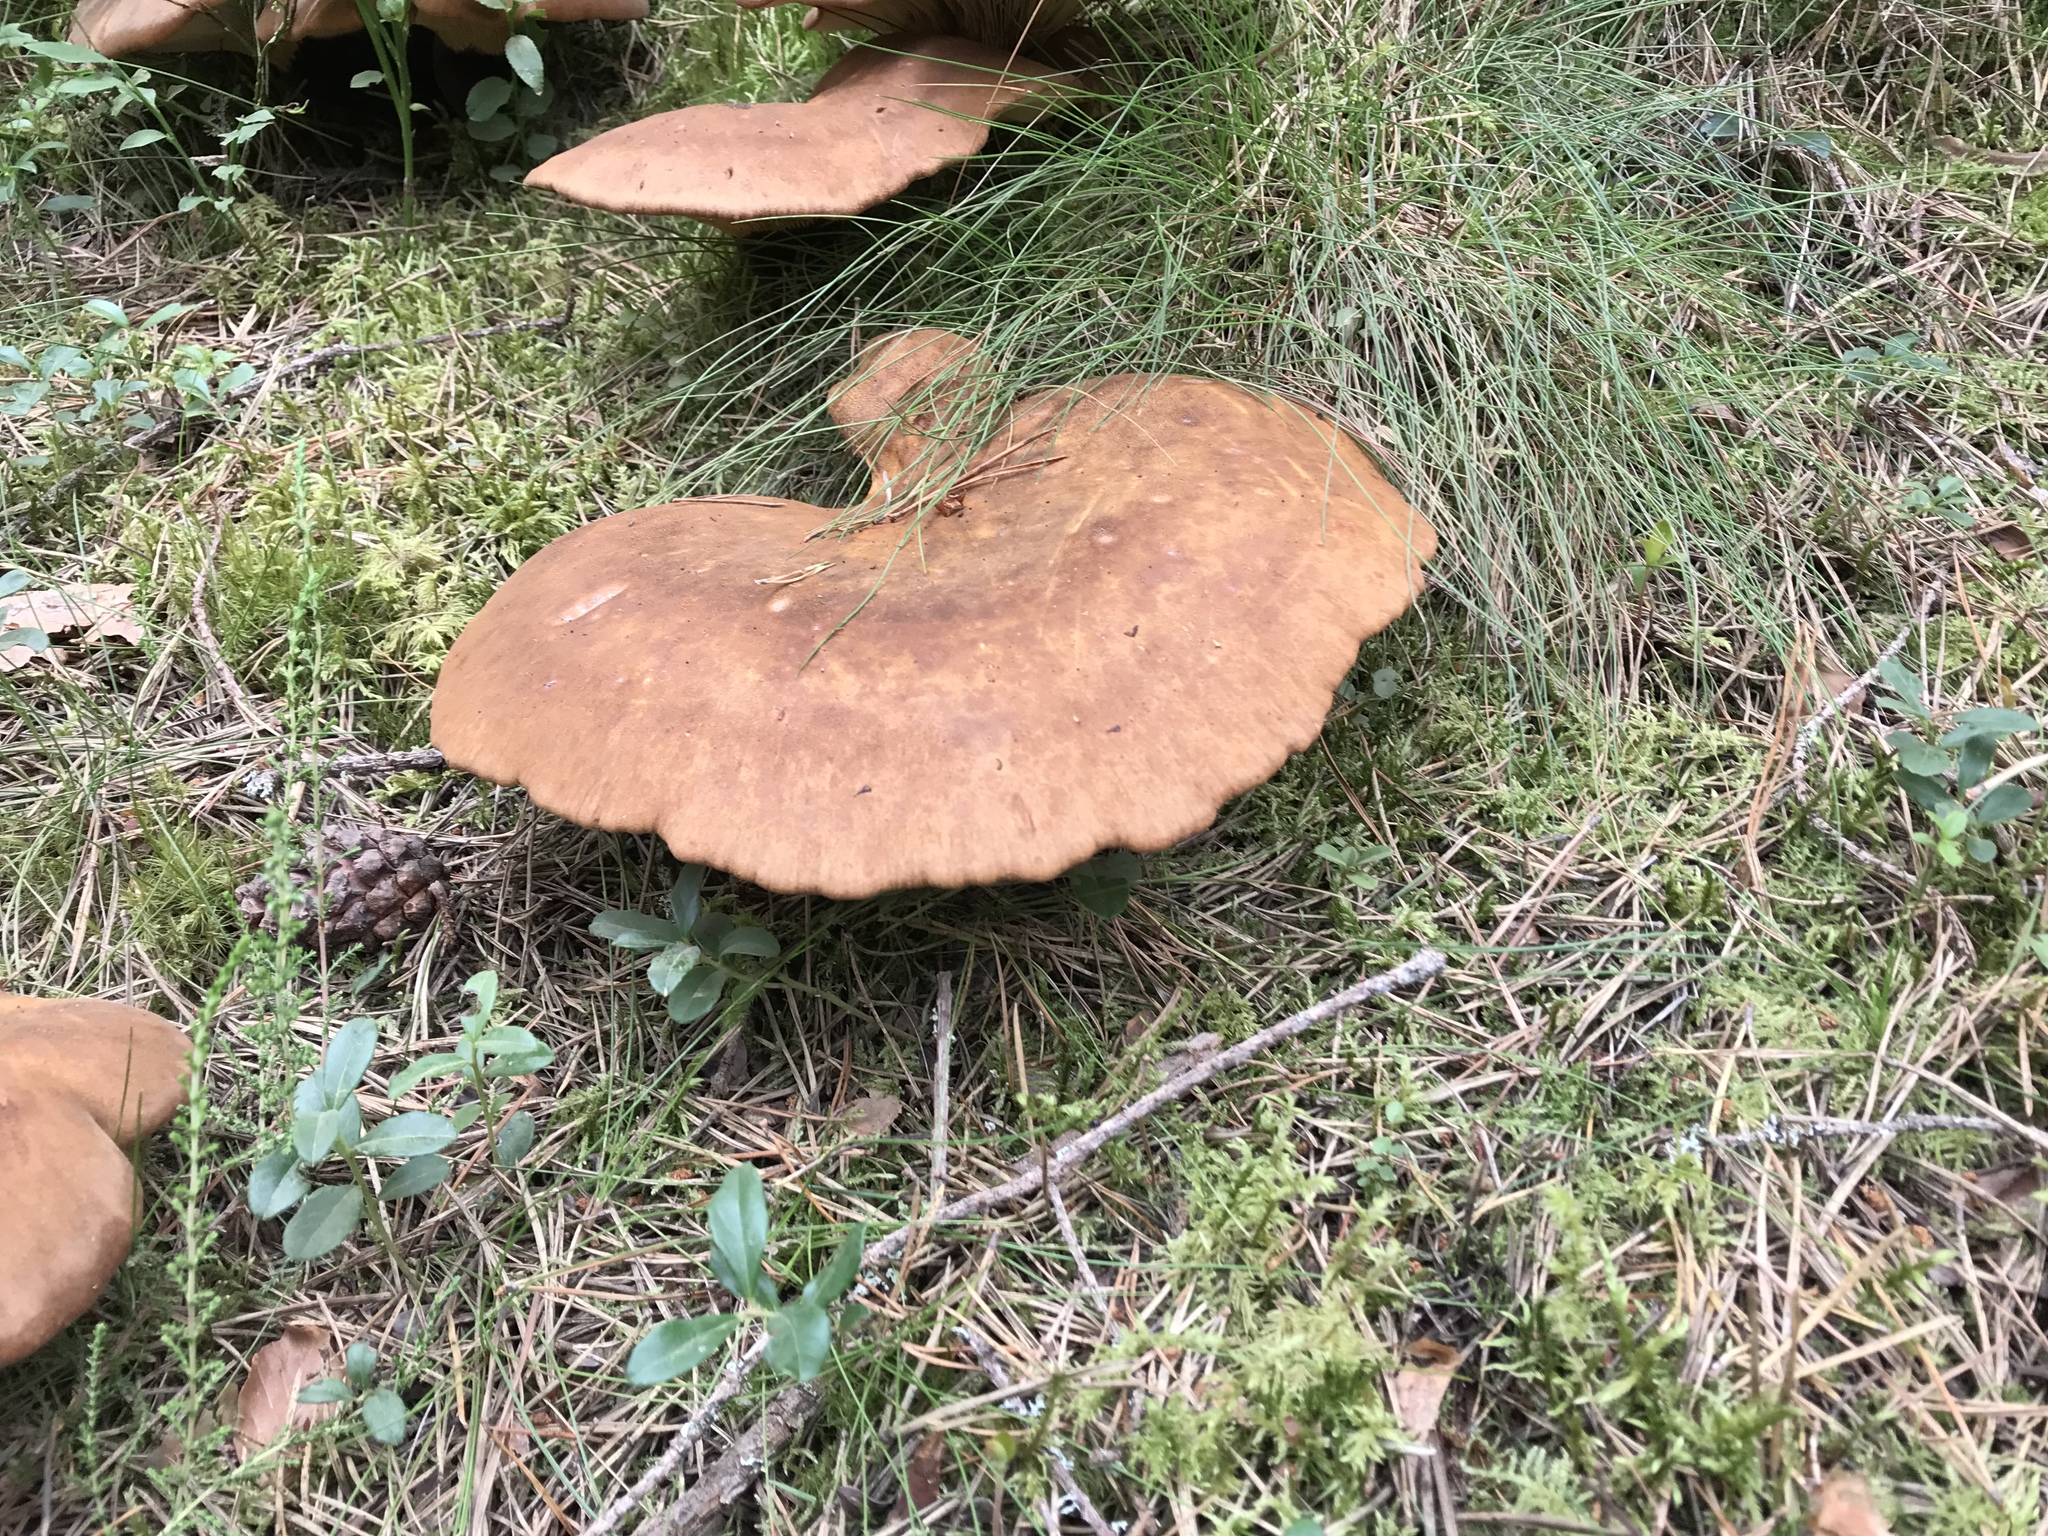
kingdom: Fungi
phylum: Basidiomycota
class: Agaricomycetes
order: Boletales
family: Tapinellaceae
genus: Tapinella
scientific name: Tapinella atrotomentosa
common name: Velvet rollrim
